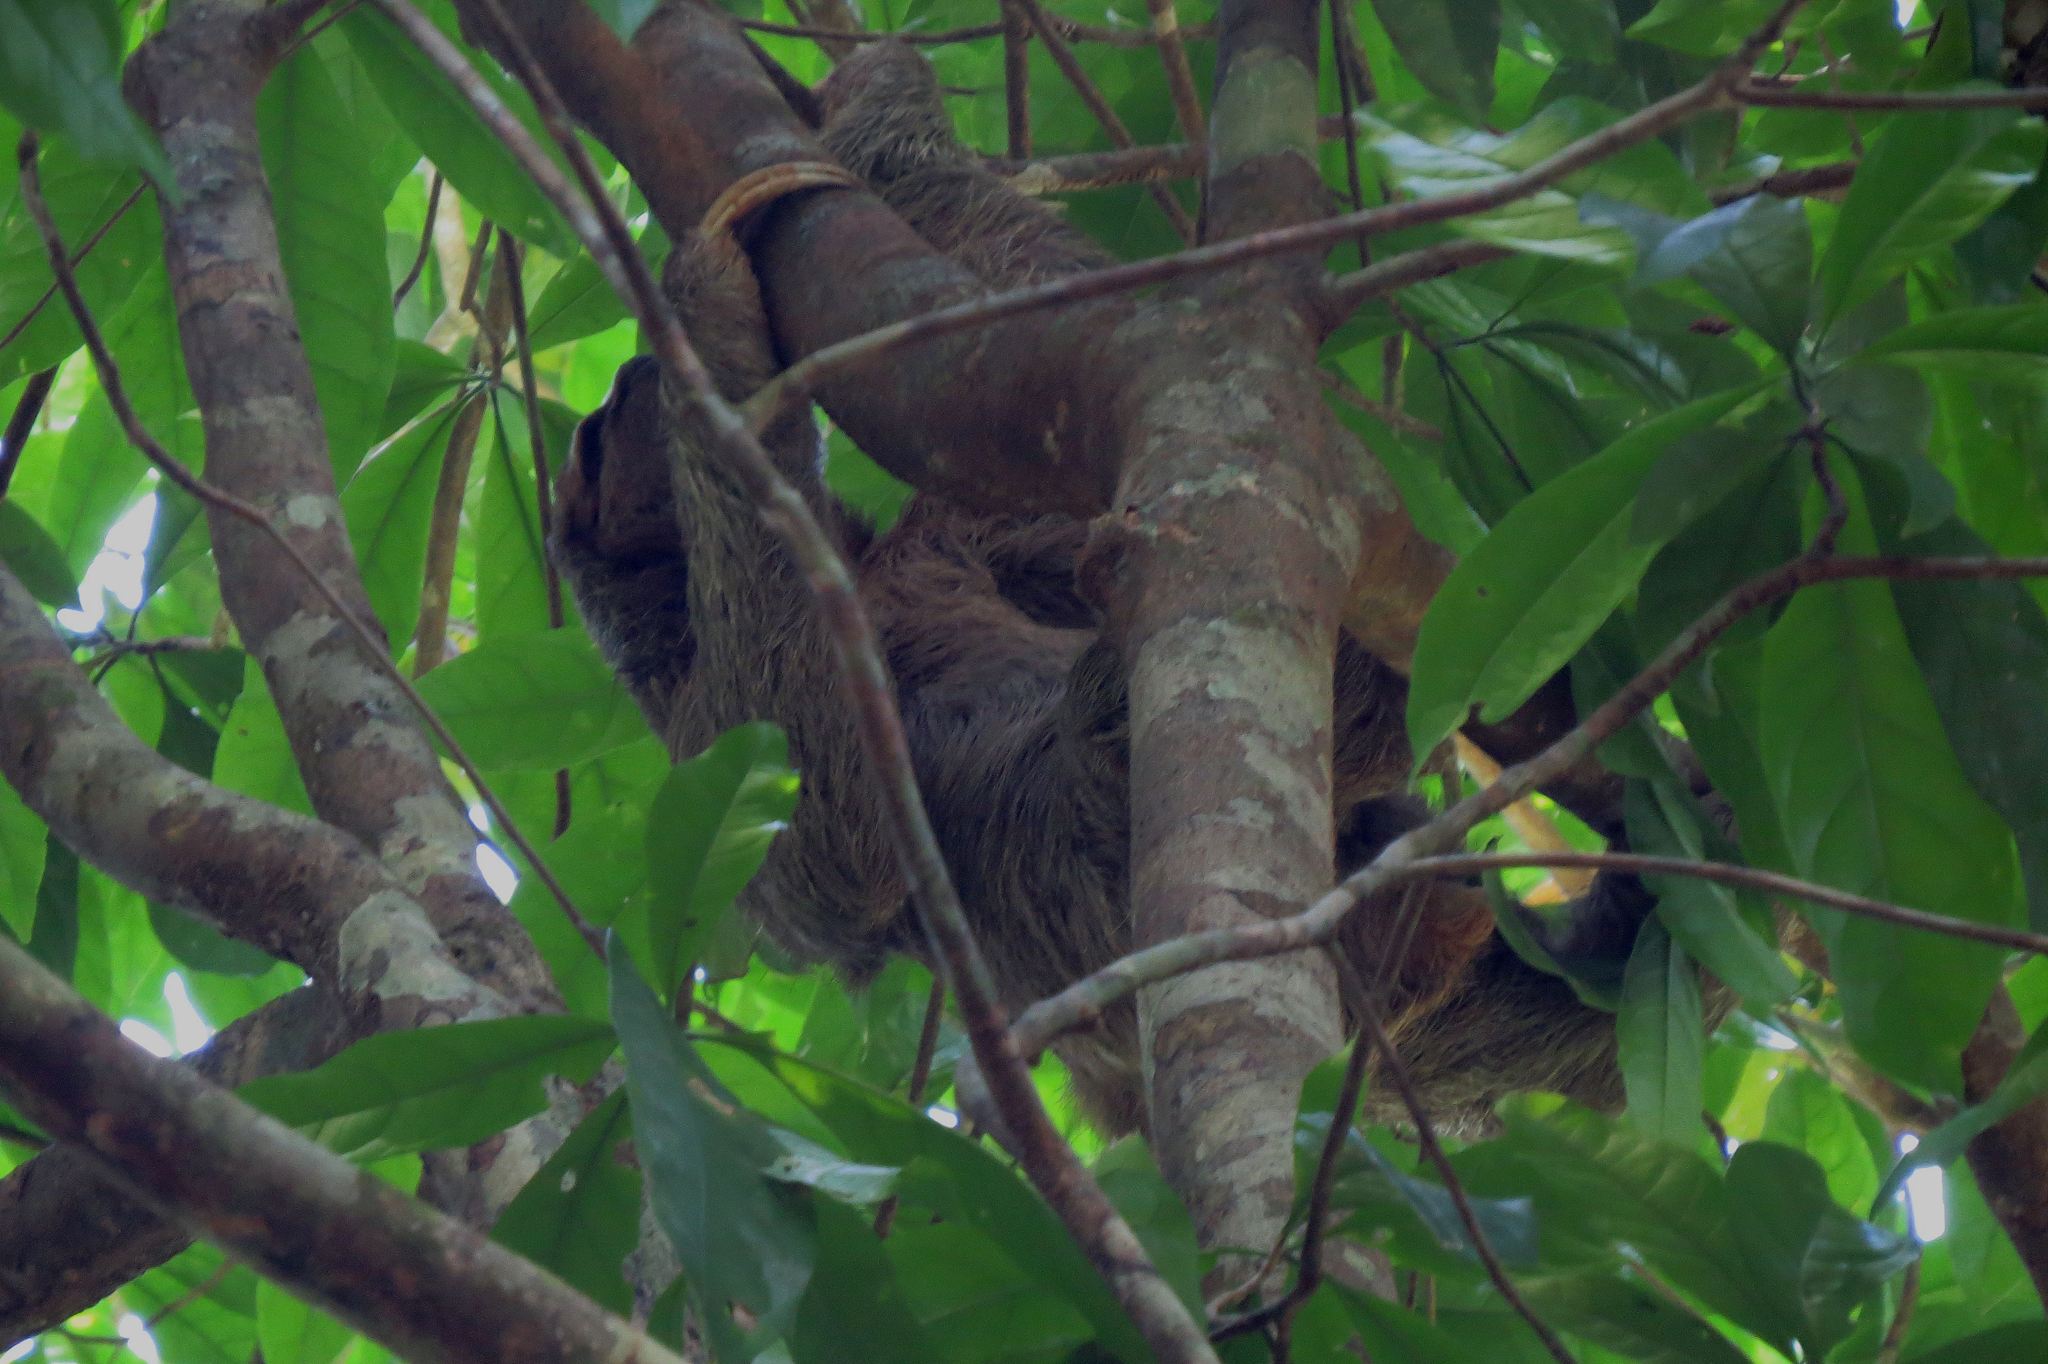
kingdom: Animalia
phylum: Chordata
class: Mammalia
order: Pilosa
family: Bradypodidae
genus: Bradypus
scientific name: Bradypus variegatus
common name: Brown-throated three-toed sloth
